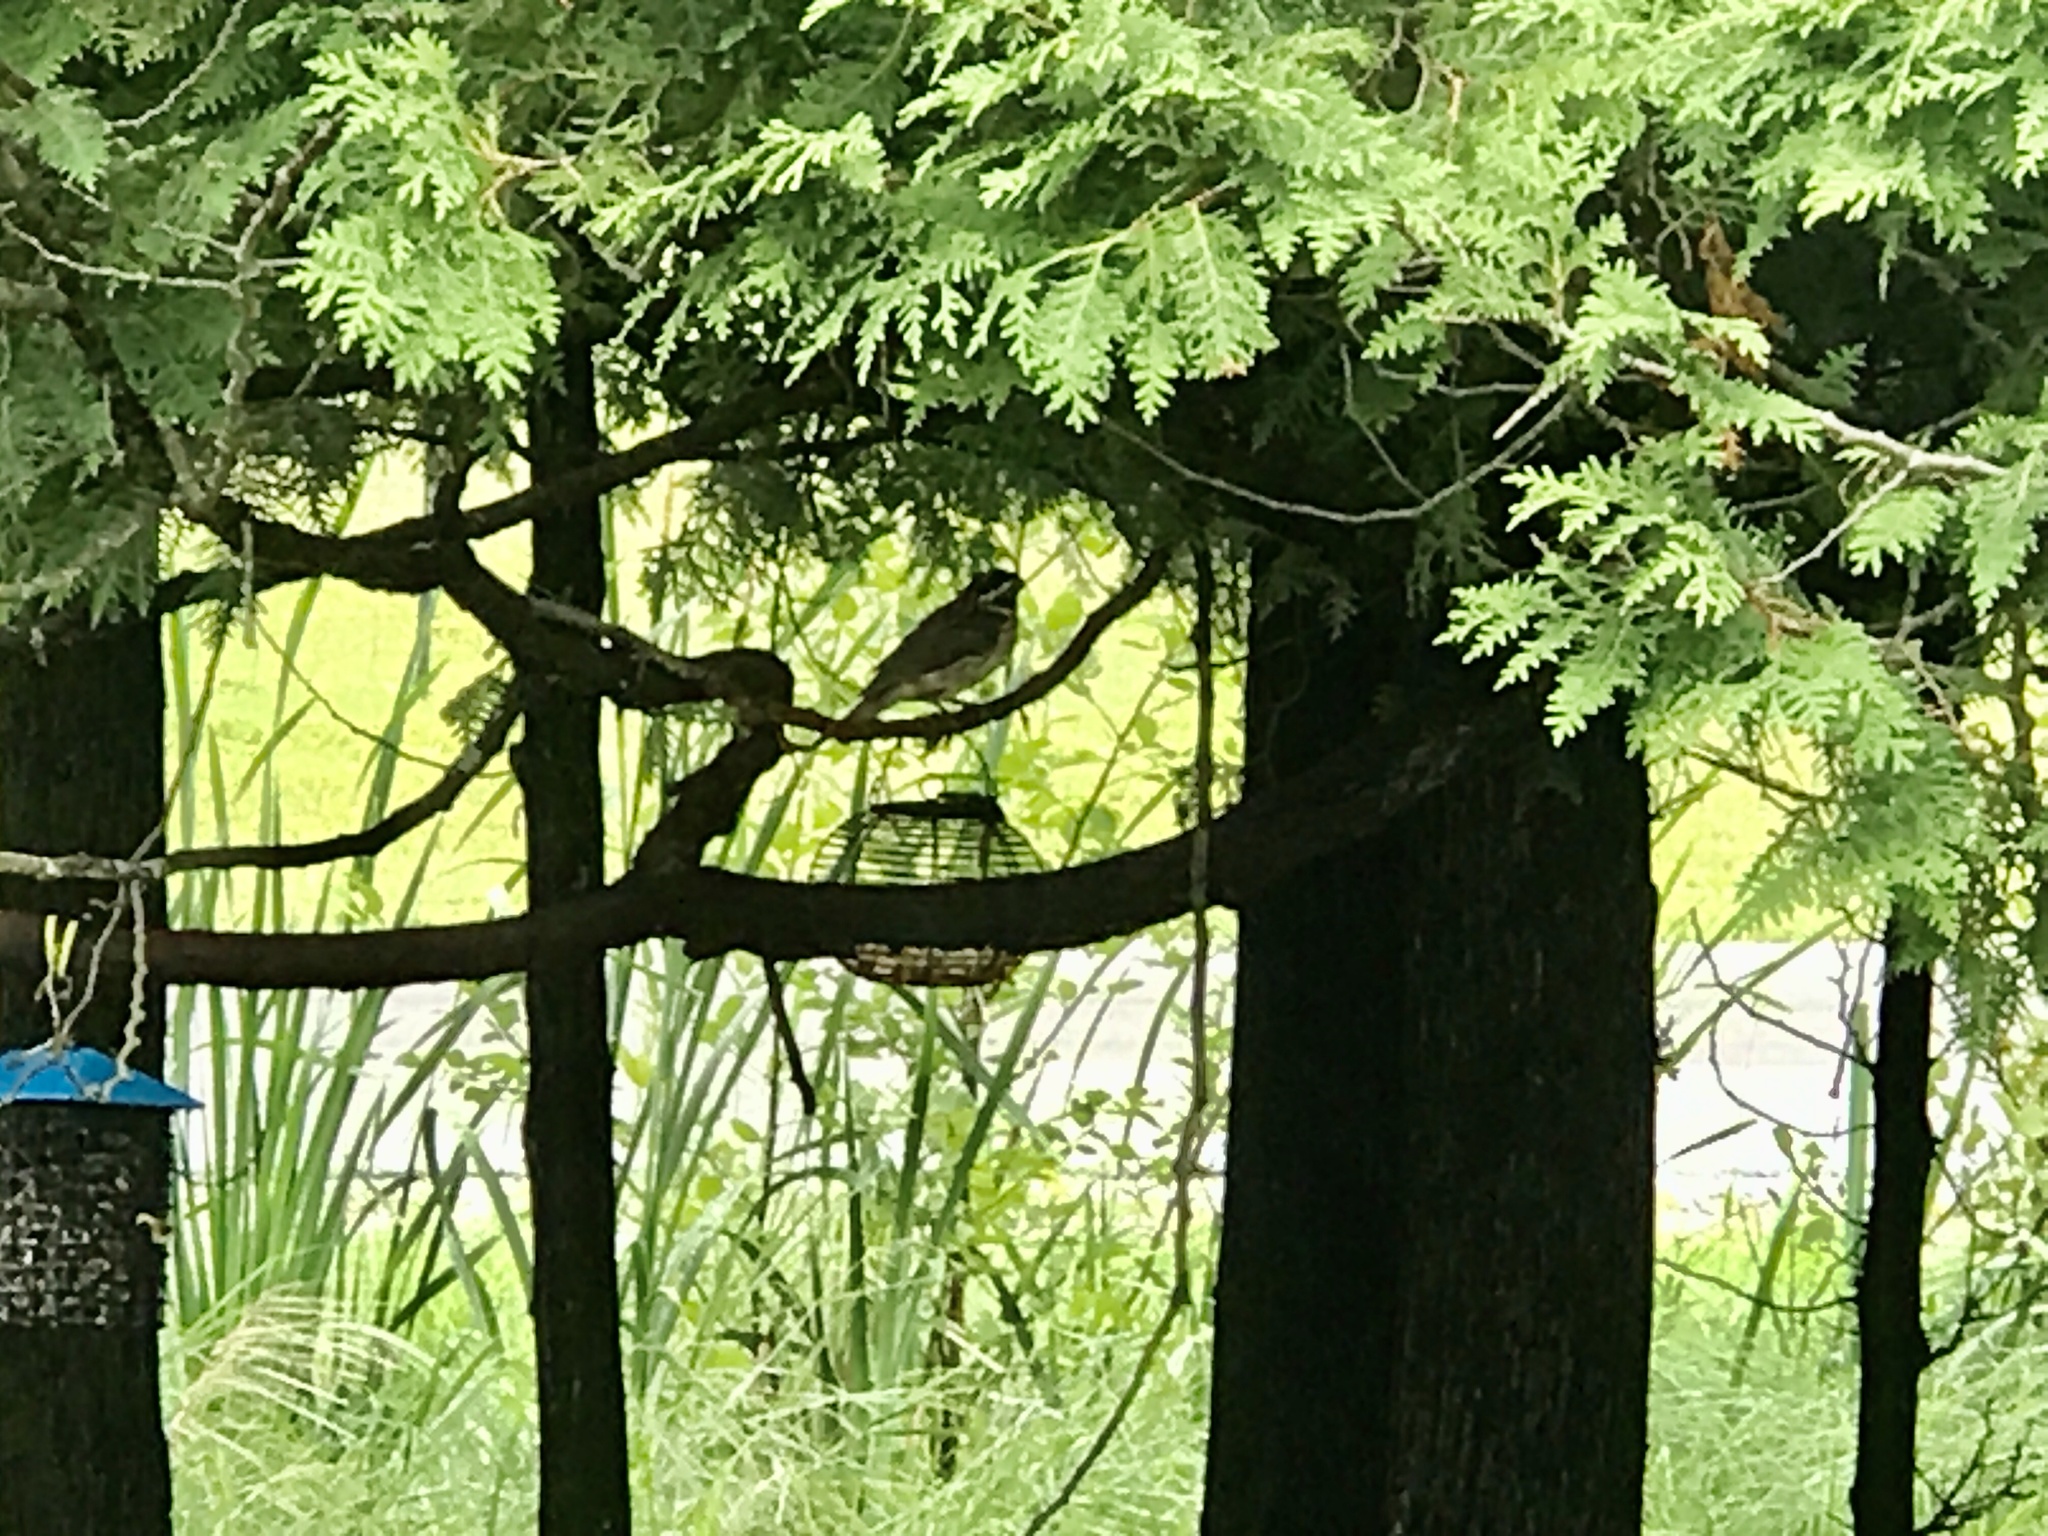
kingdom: Animalia
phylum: Chordata
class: Aves
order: Passeriformes
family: Cardinalidae
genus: Pheucticus
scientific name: Pheucticus ludovicianus
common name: Rose-breasted grosbeak
